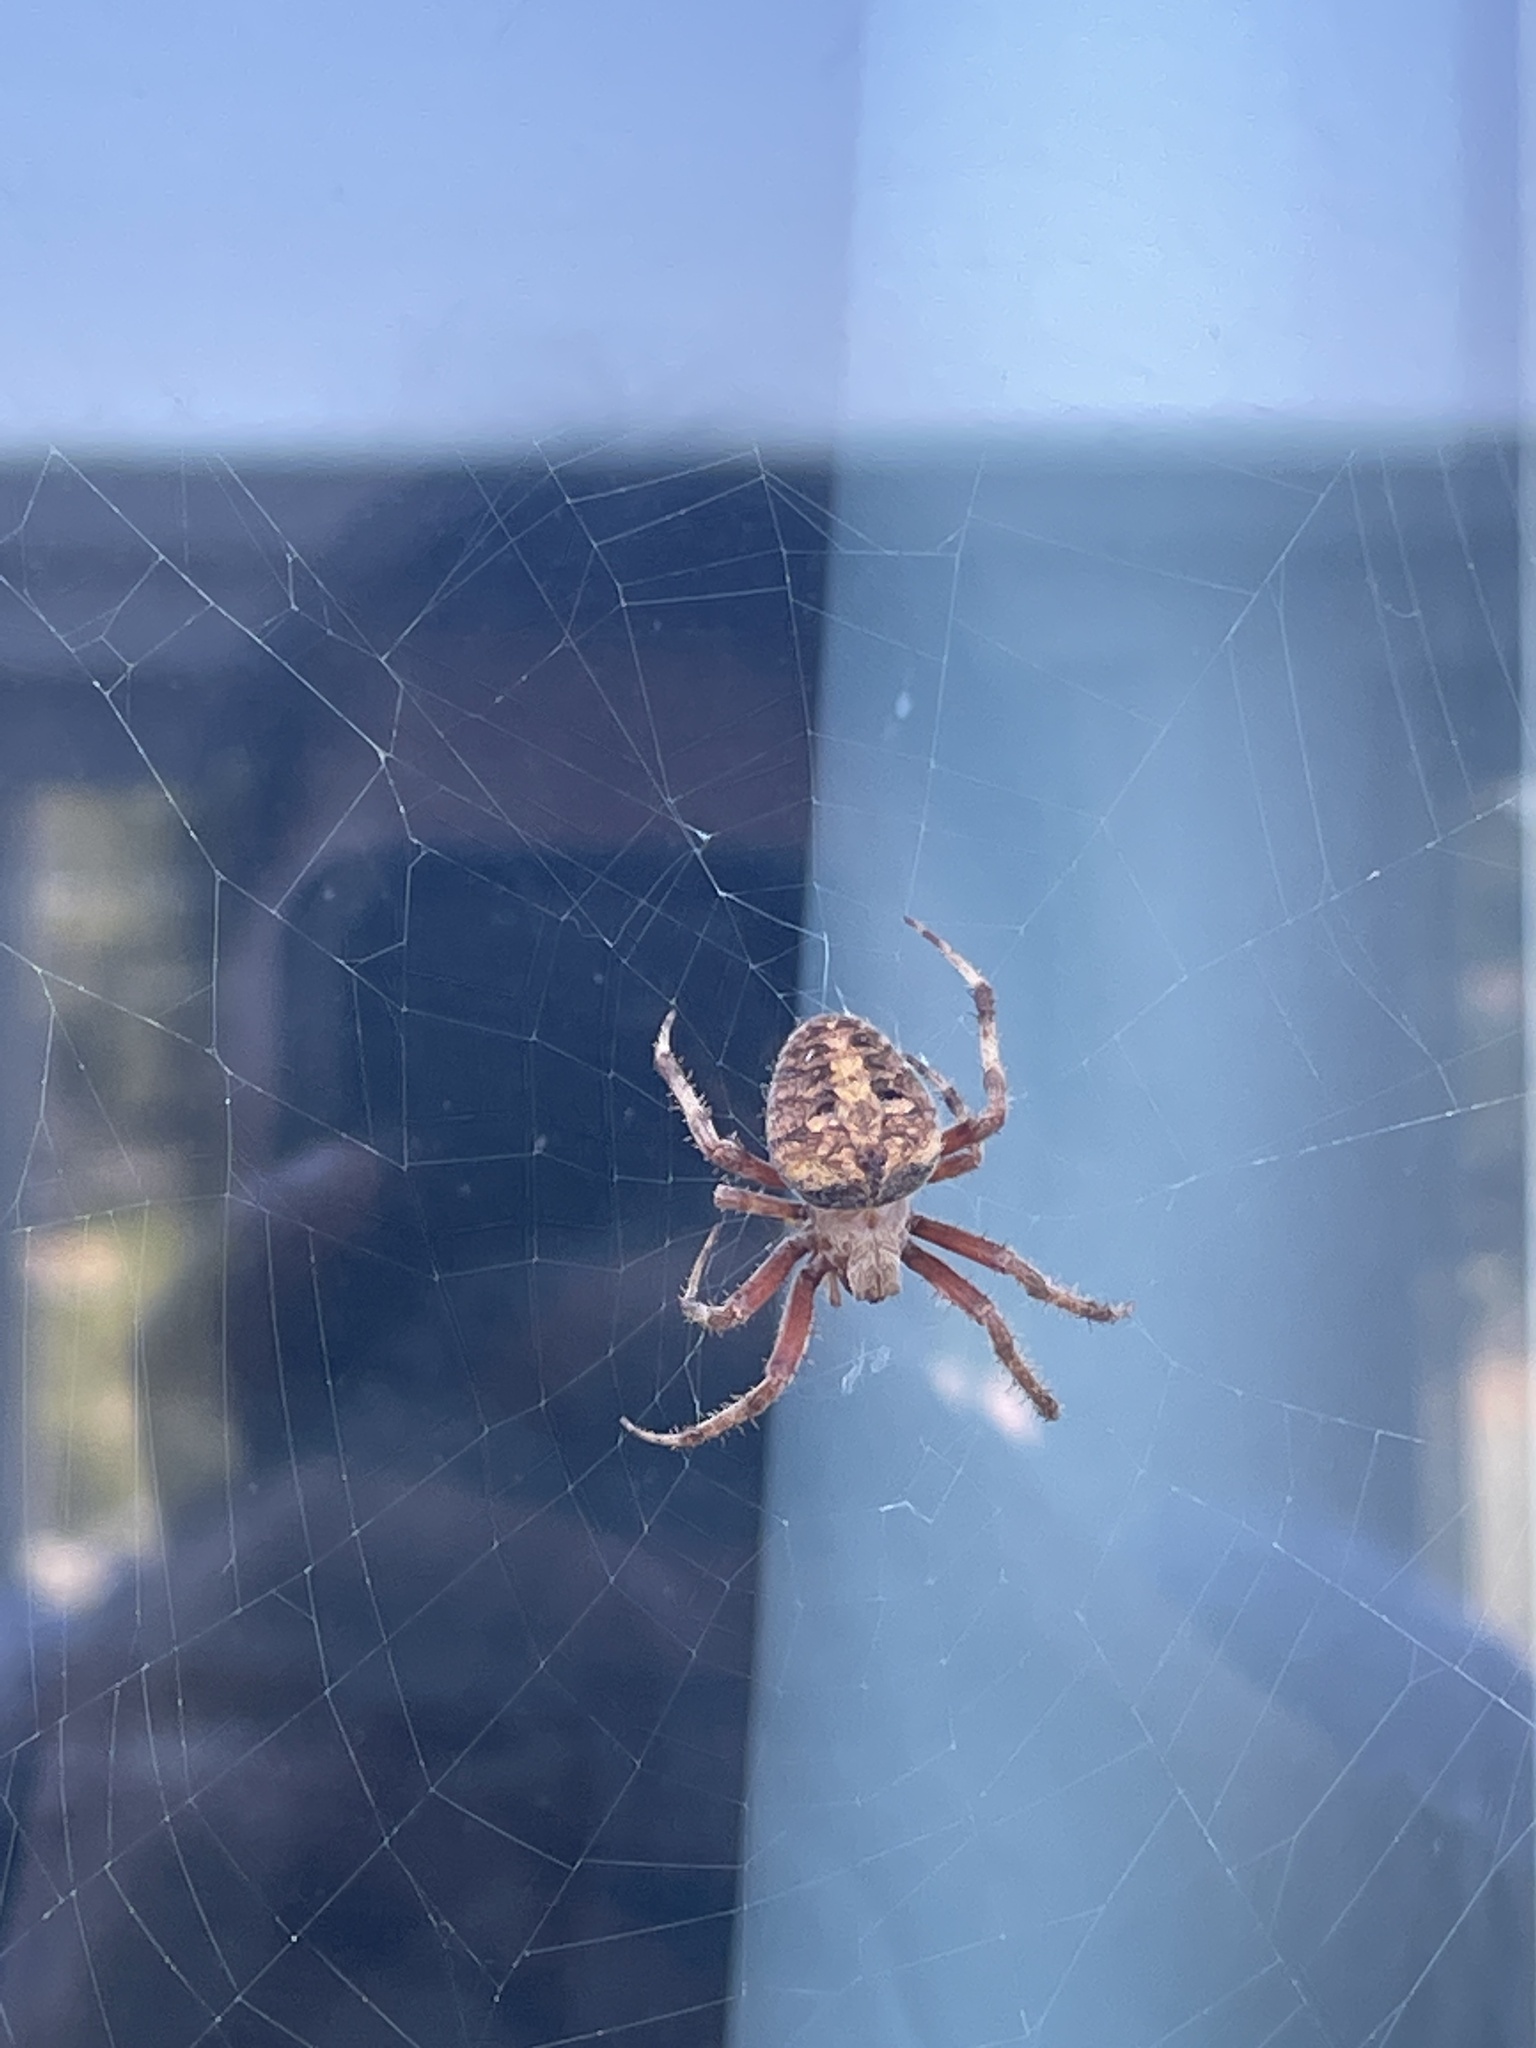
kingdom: Animalia
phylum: Arthropoda
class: Arachnida
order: Araneae
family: Araneidae
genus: Neoscona
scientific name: Neoscona crucifera
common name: Spotted orbweaver
